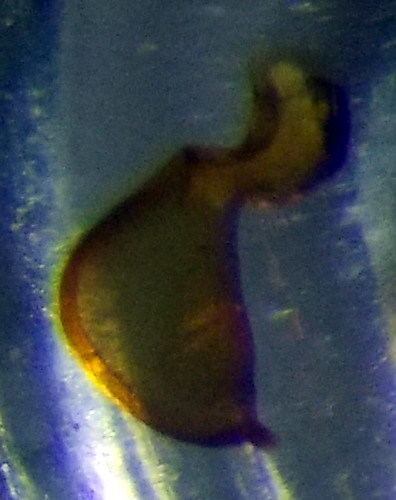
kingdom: Animalia
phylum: Arthropoda
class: Insecta
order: Hemiptera
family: Nabidae
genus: Nabis
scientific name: Nabis pseudoferus
